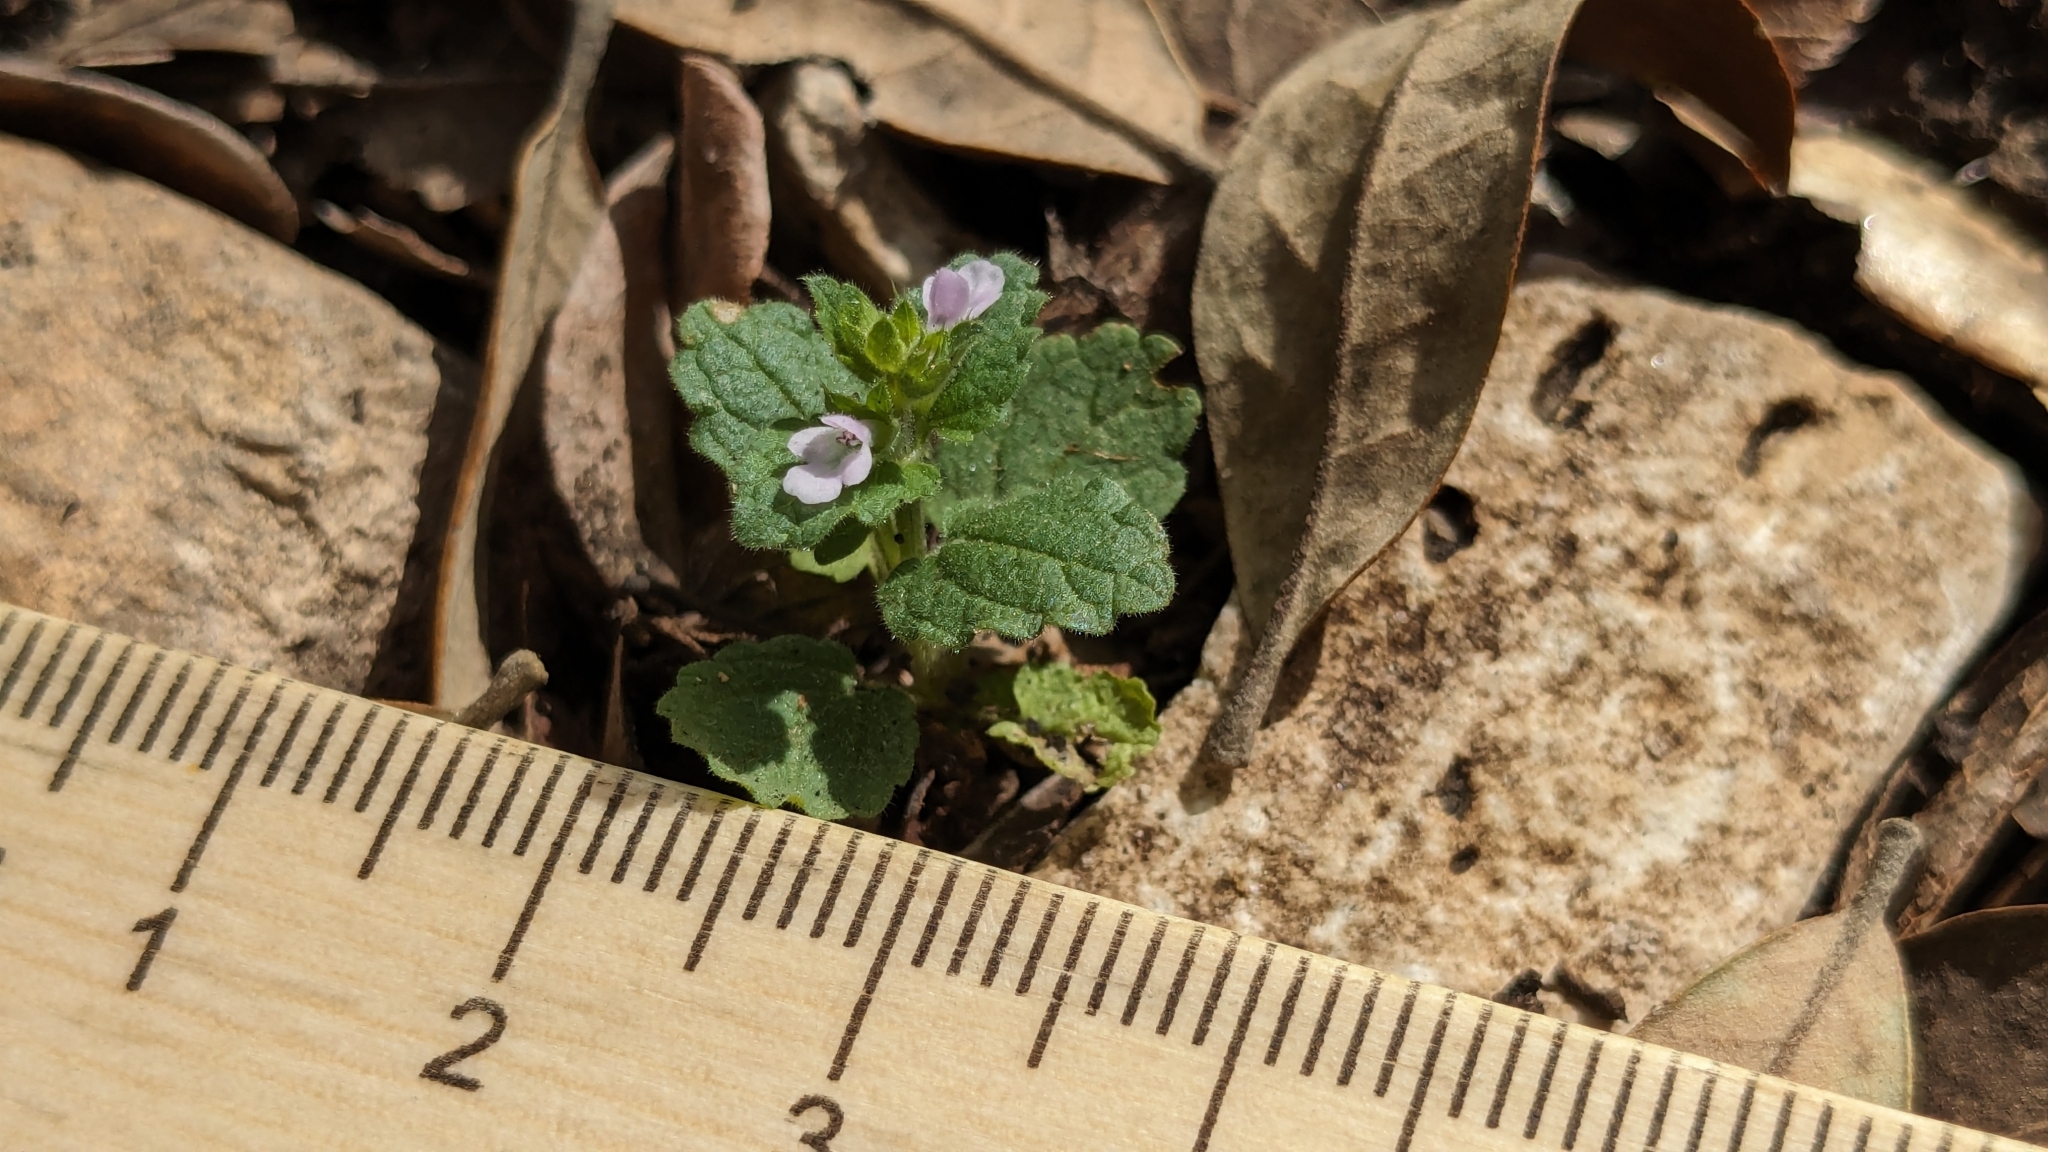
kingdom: Plantae
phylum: Tracheophyta
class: Magnoliopsida
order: Lamiales
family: Lamiaceae
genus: Stachys
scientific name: Stachys
